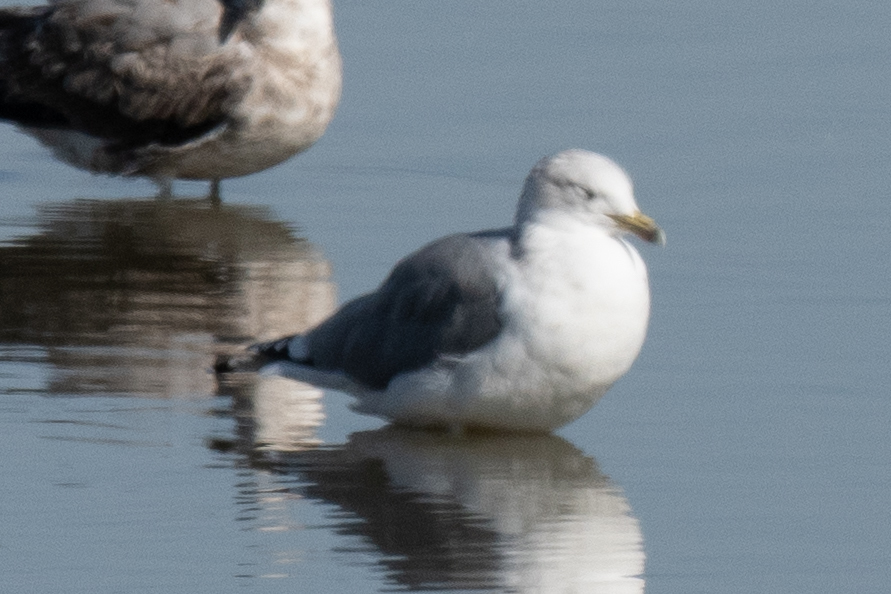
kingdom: Animalia
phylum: Chordata
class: Aves
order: Charadriiformes
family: Laridae
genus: Larus
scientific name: Larus californicus
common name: California gull
